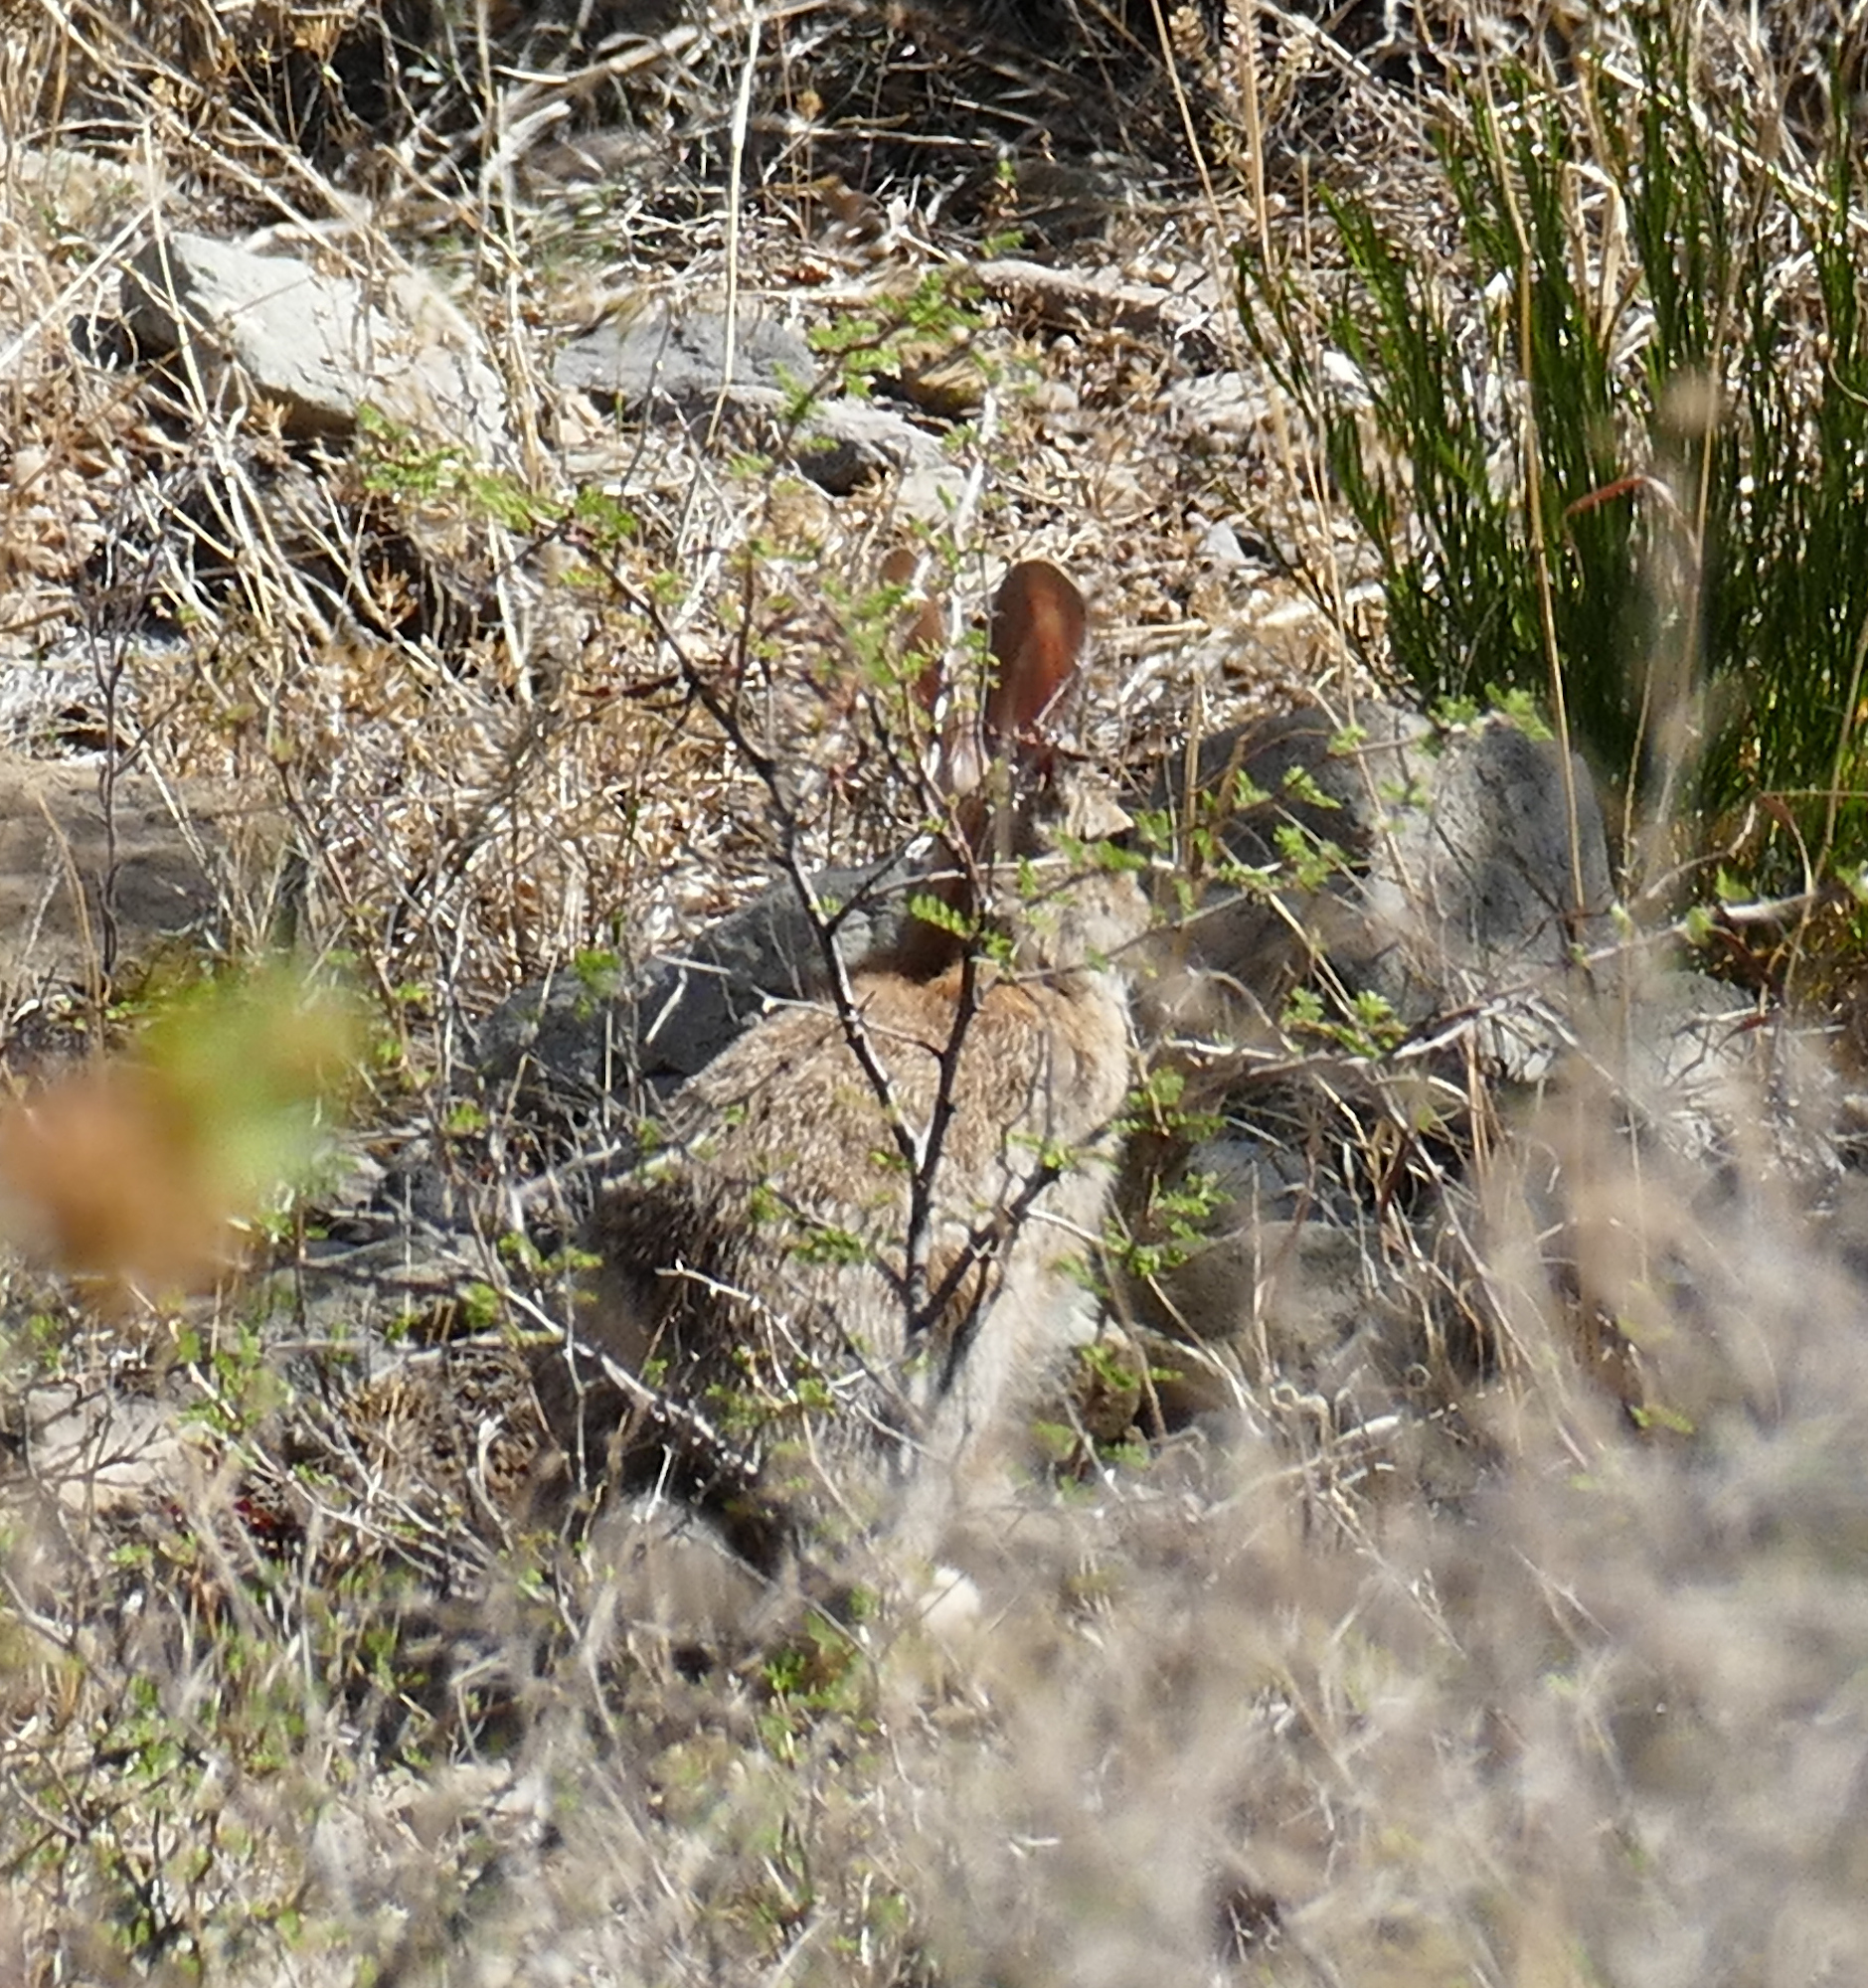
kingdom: Animalia
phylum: Chordata
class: Mammalia
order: Lagomorpha
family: Leporidae
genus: Sylvilagus
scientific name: Sylvilagus audubonii
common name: Desert cottontail
